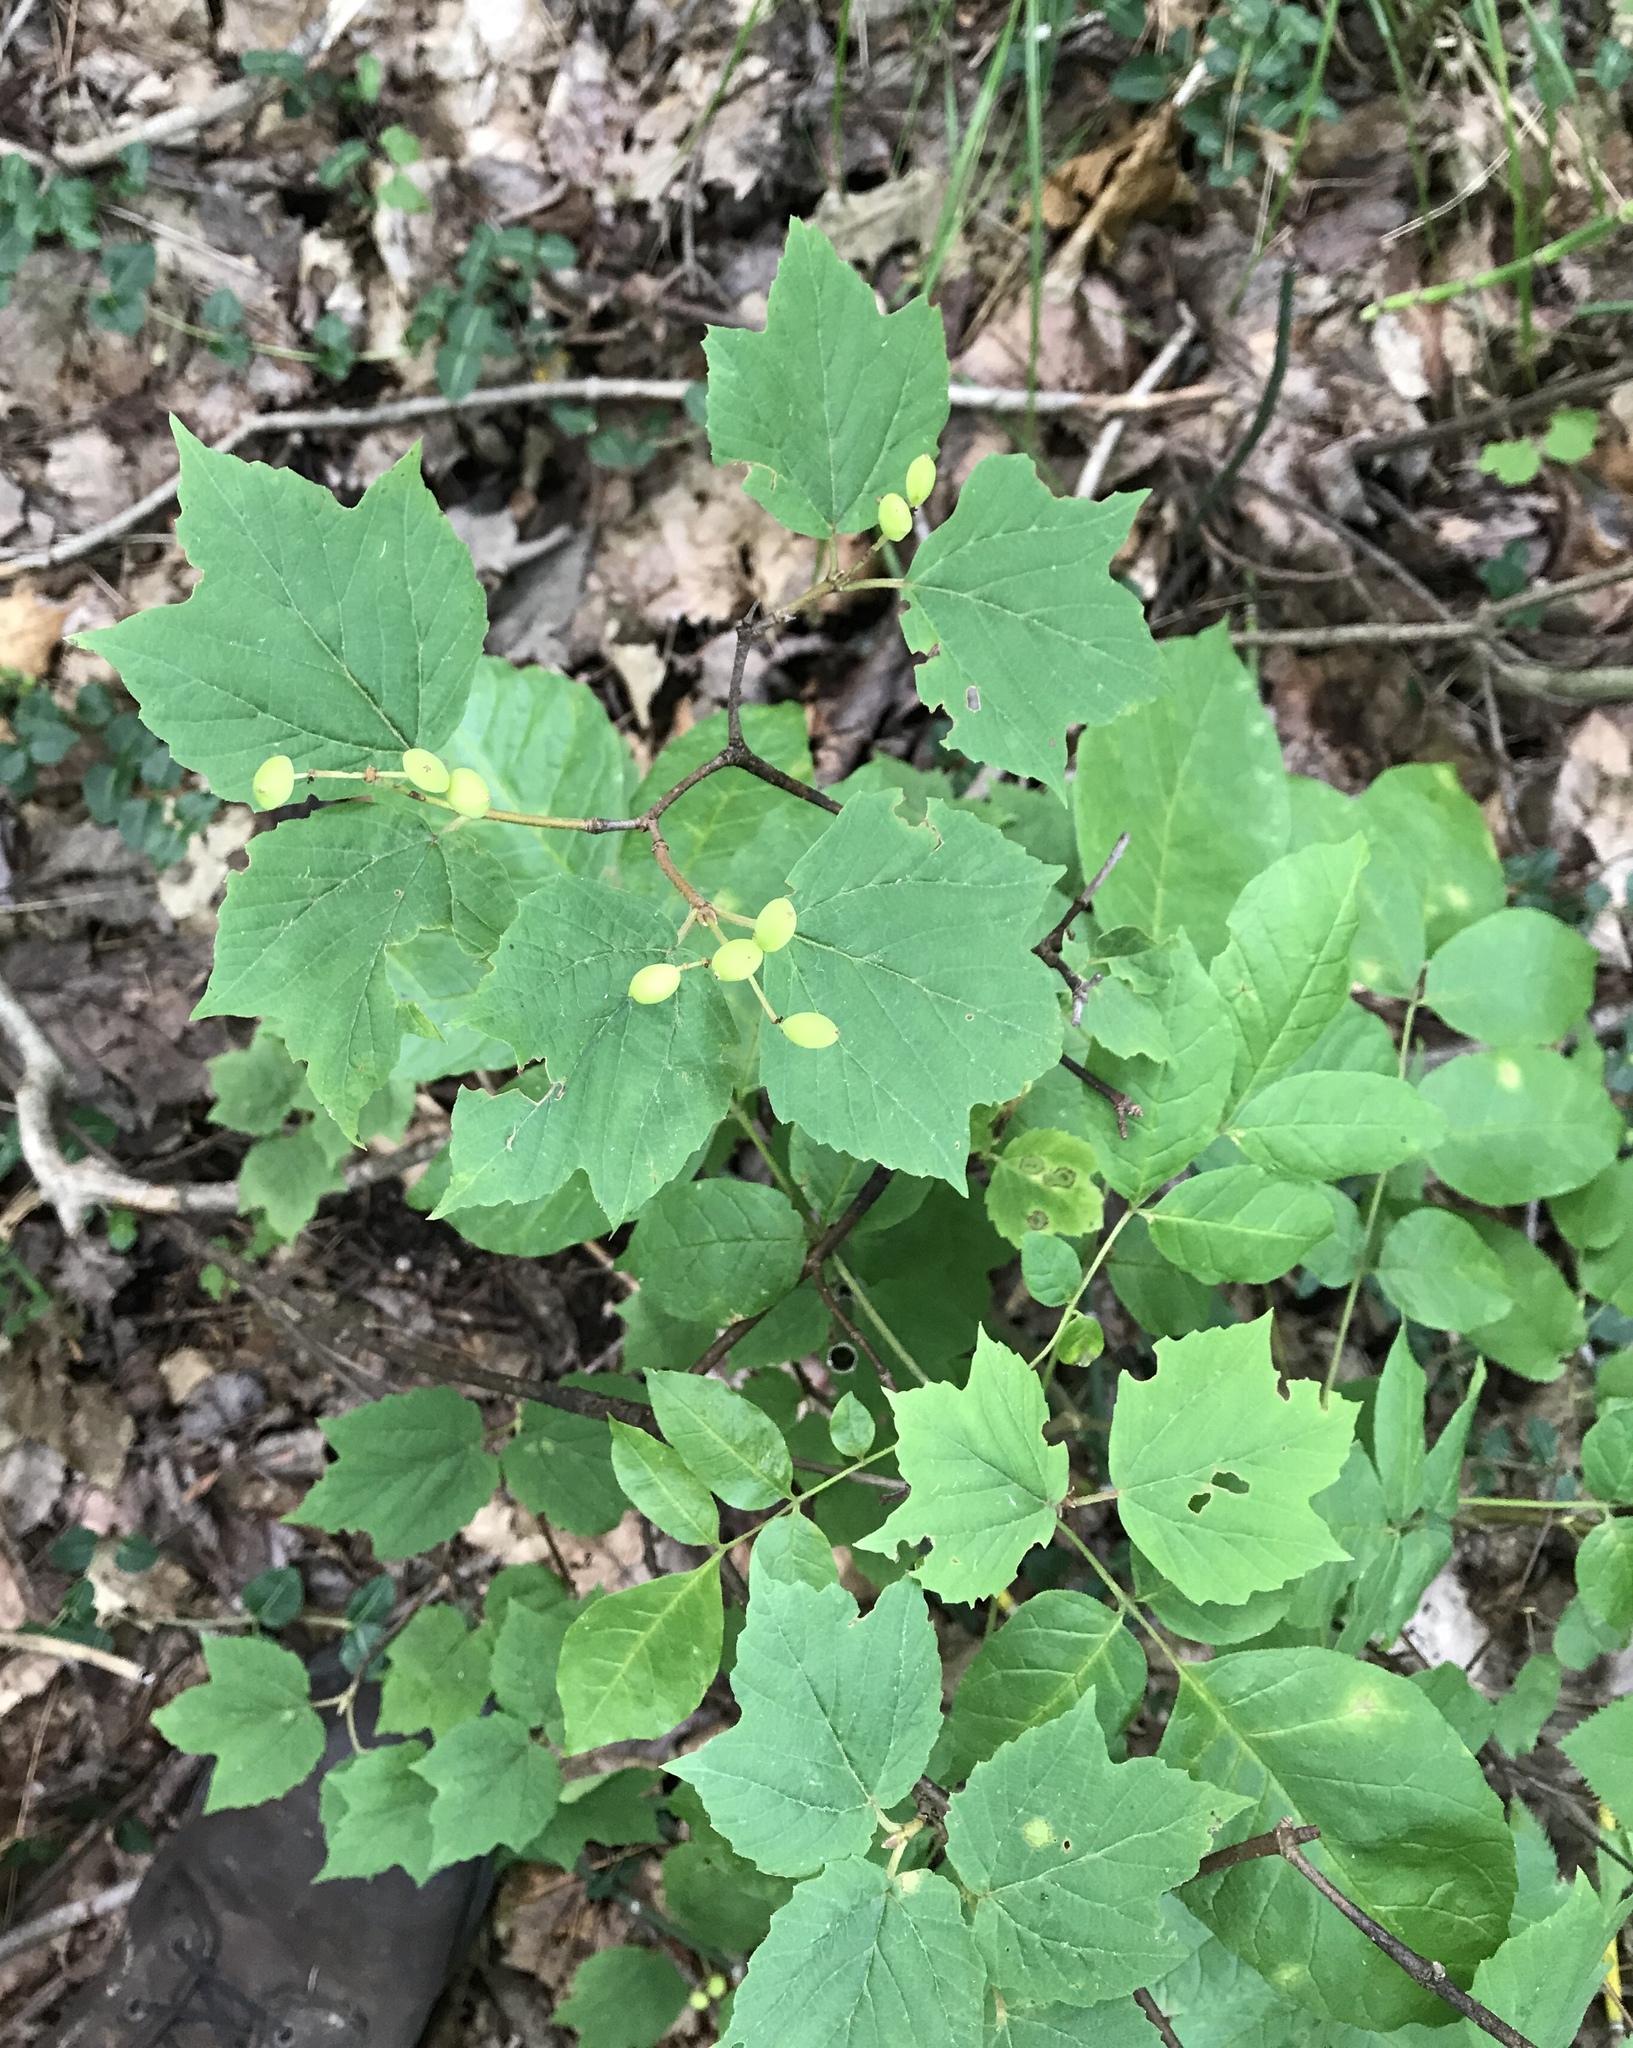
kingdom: Plantae
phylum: Tracheophyta
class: Magnoliopsida
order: Dipsacales
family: Viburnaceae
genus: Viburnum
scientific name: Viburnum acerifolium
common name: Dockmackie
